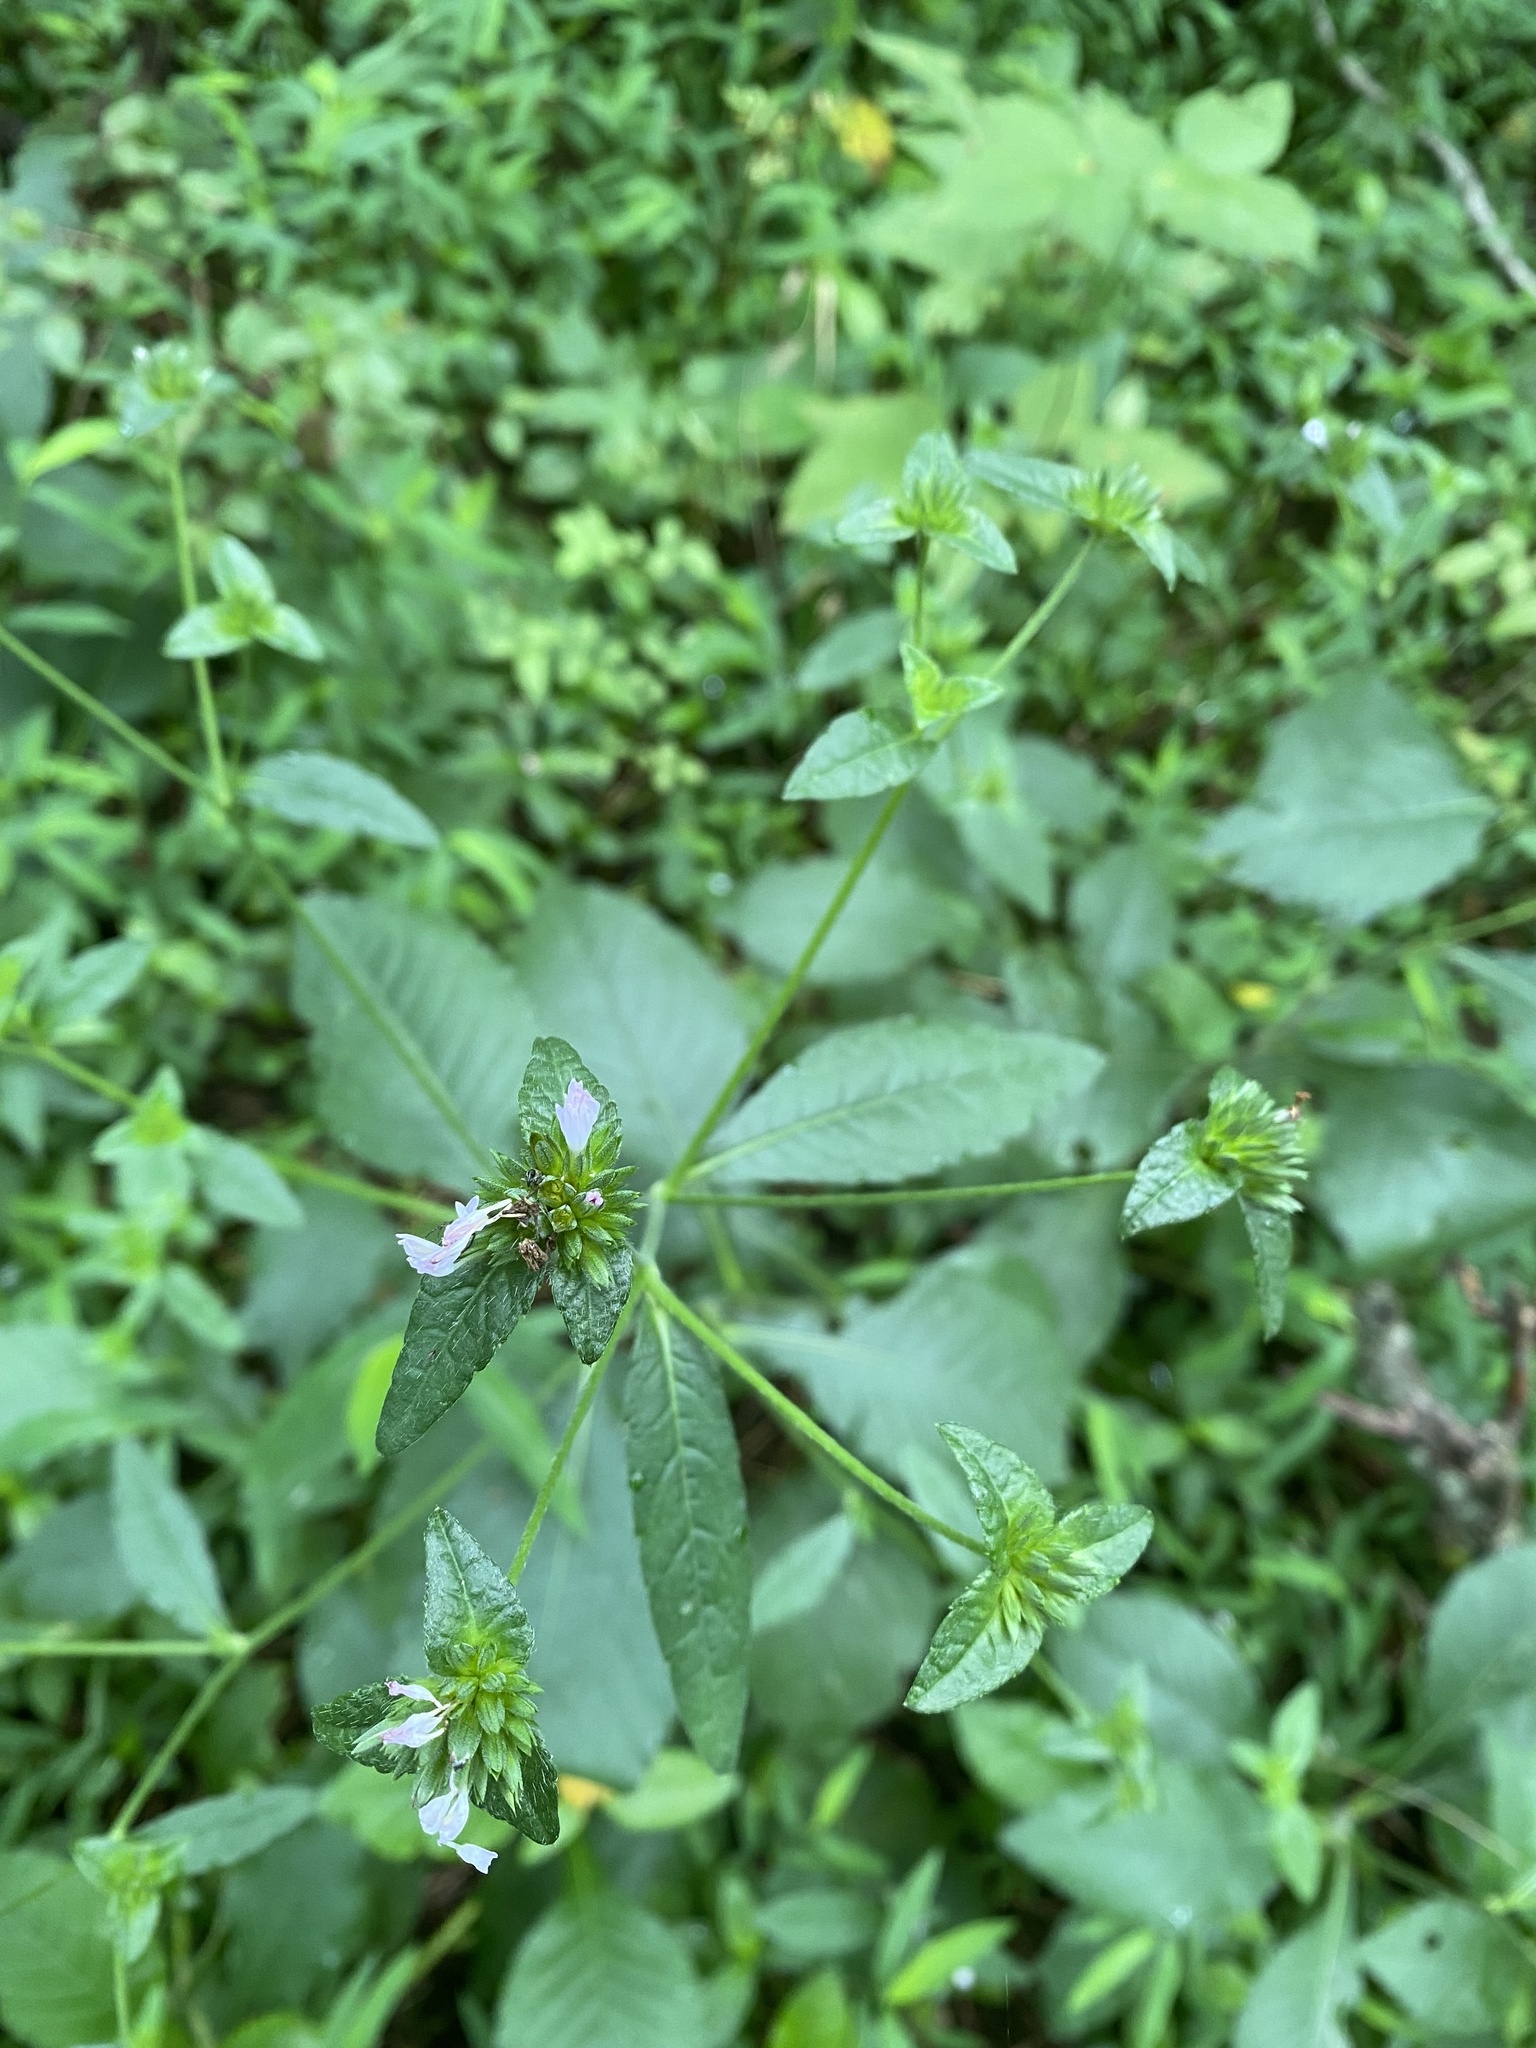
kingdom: Plantae
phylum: Tracheophyta
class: Magnoliopsida
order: Asterales
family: Asteraceae
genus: Elephantopus
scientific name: Elephantopus carolinianus
